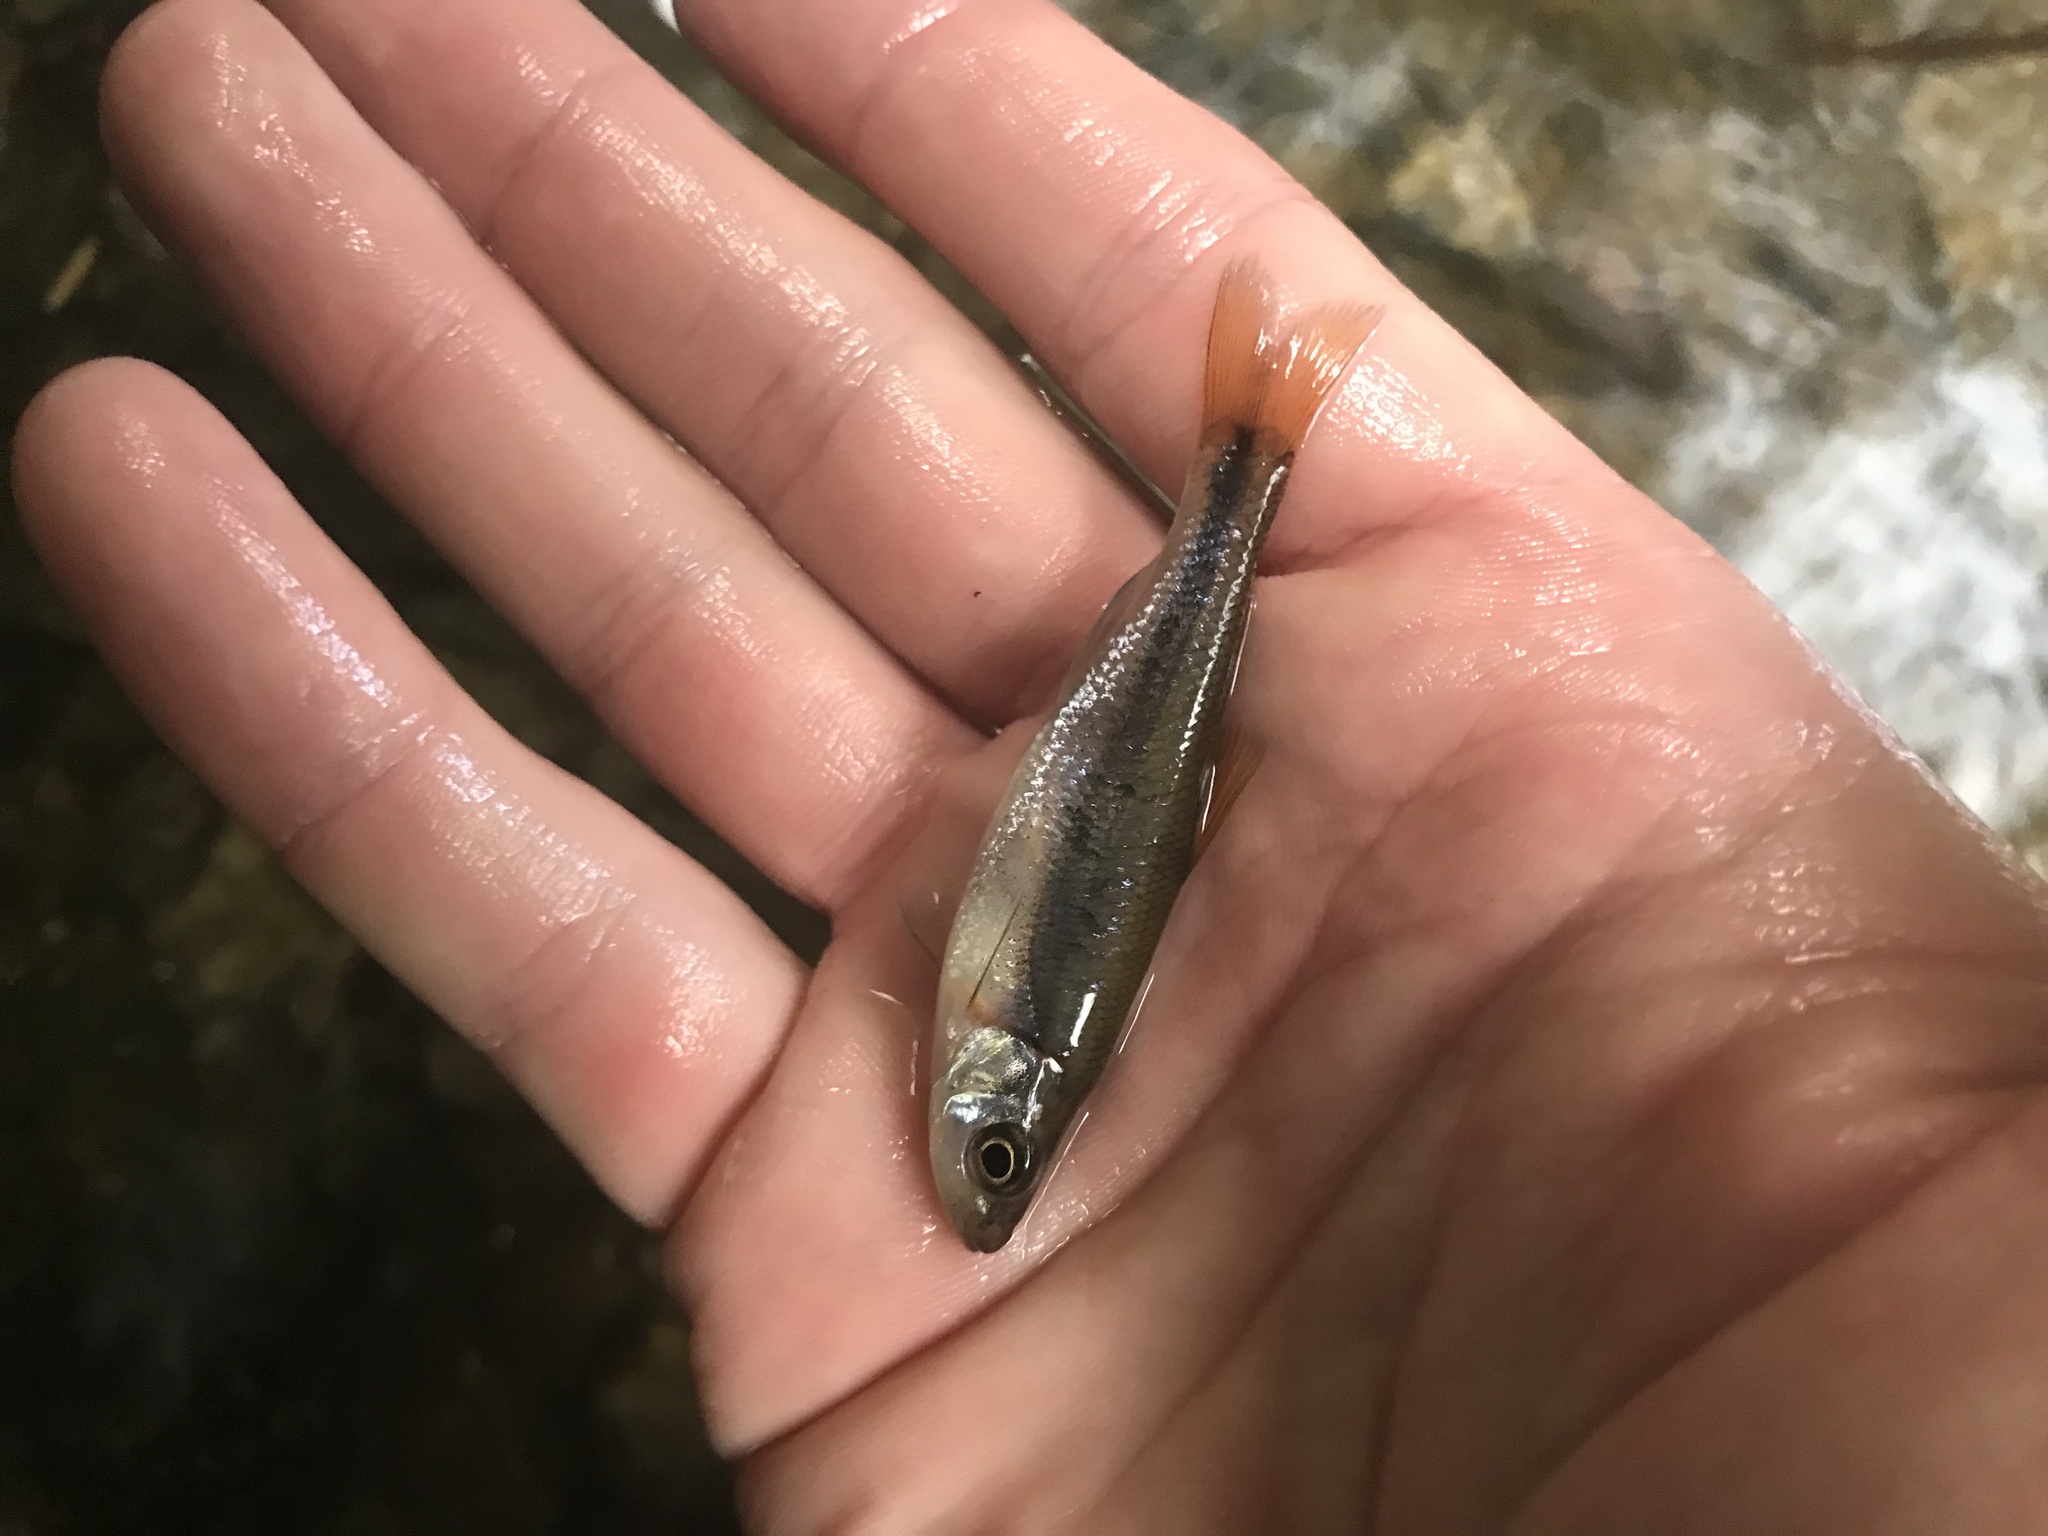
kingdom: Animalia
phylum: Chordata
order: Cypriniformes
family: Cyprinidae
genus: Clinostomus
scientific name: Clinostomus funduloides
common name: Rosyside dace
